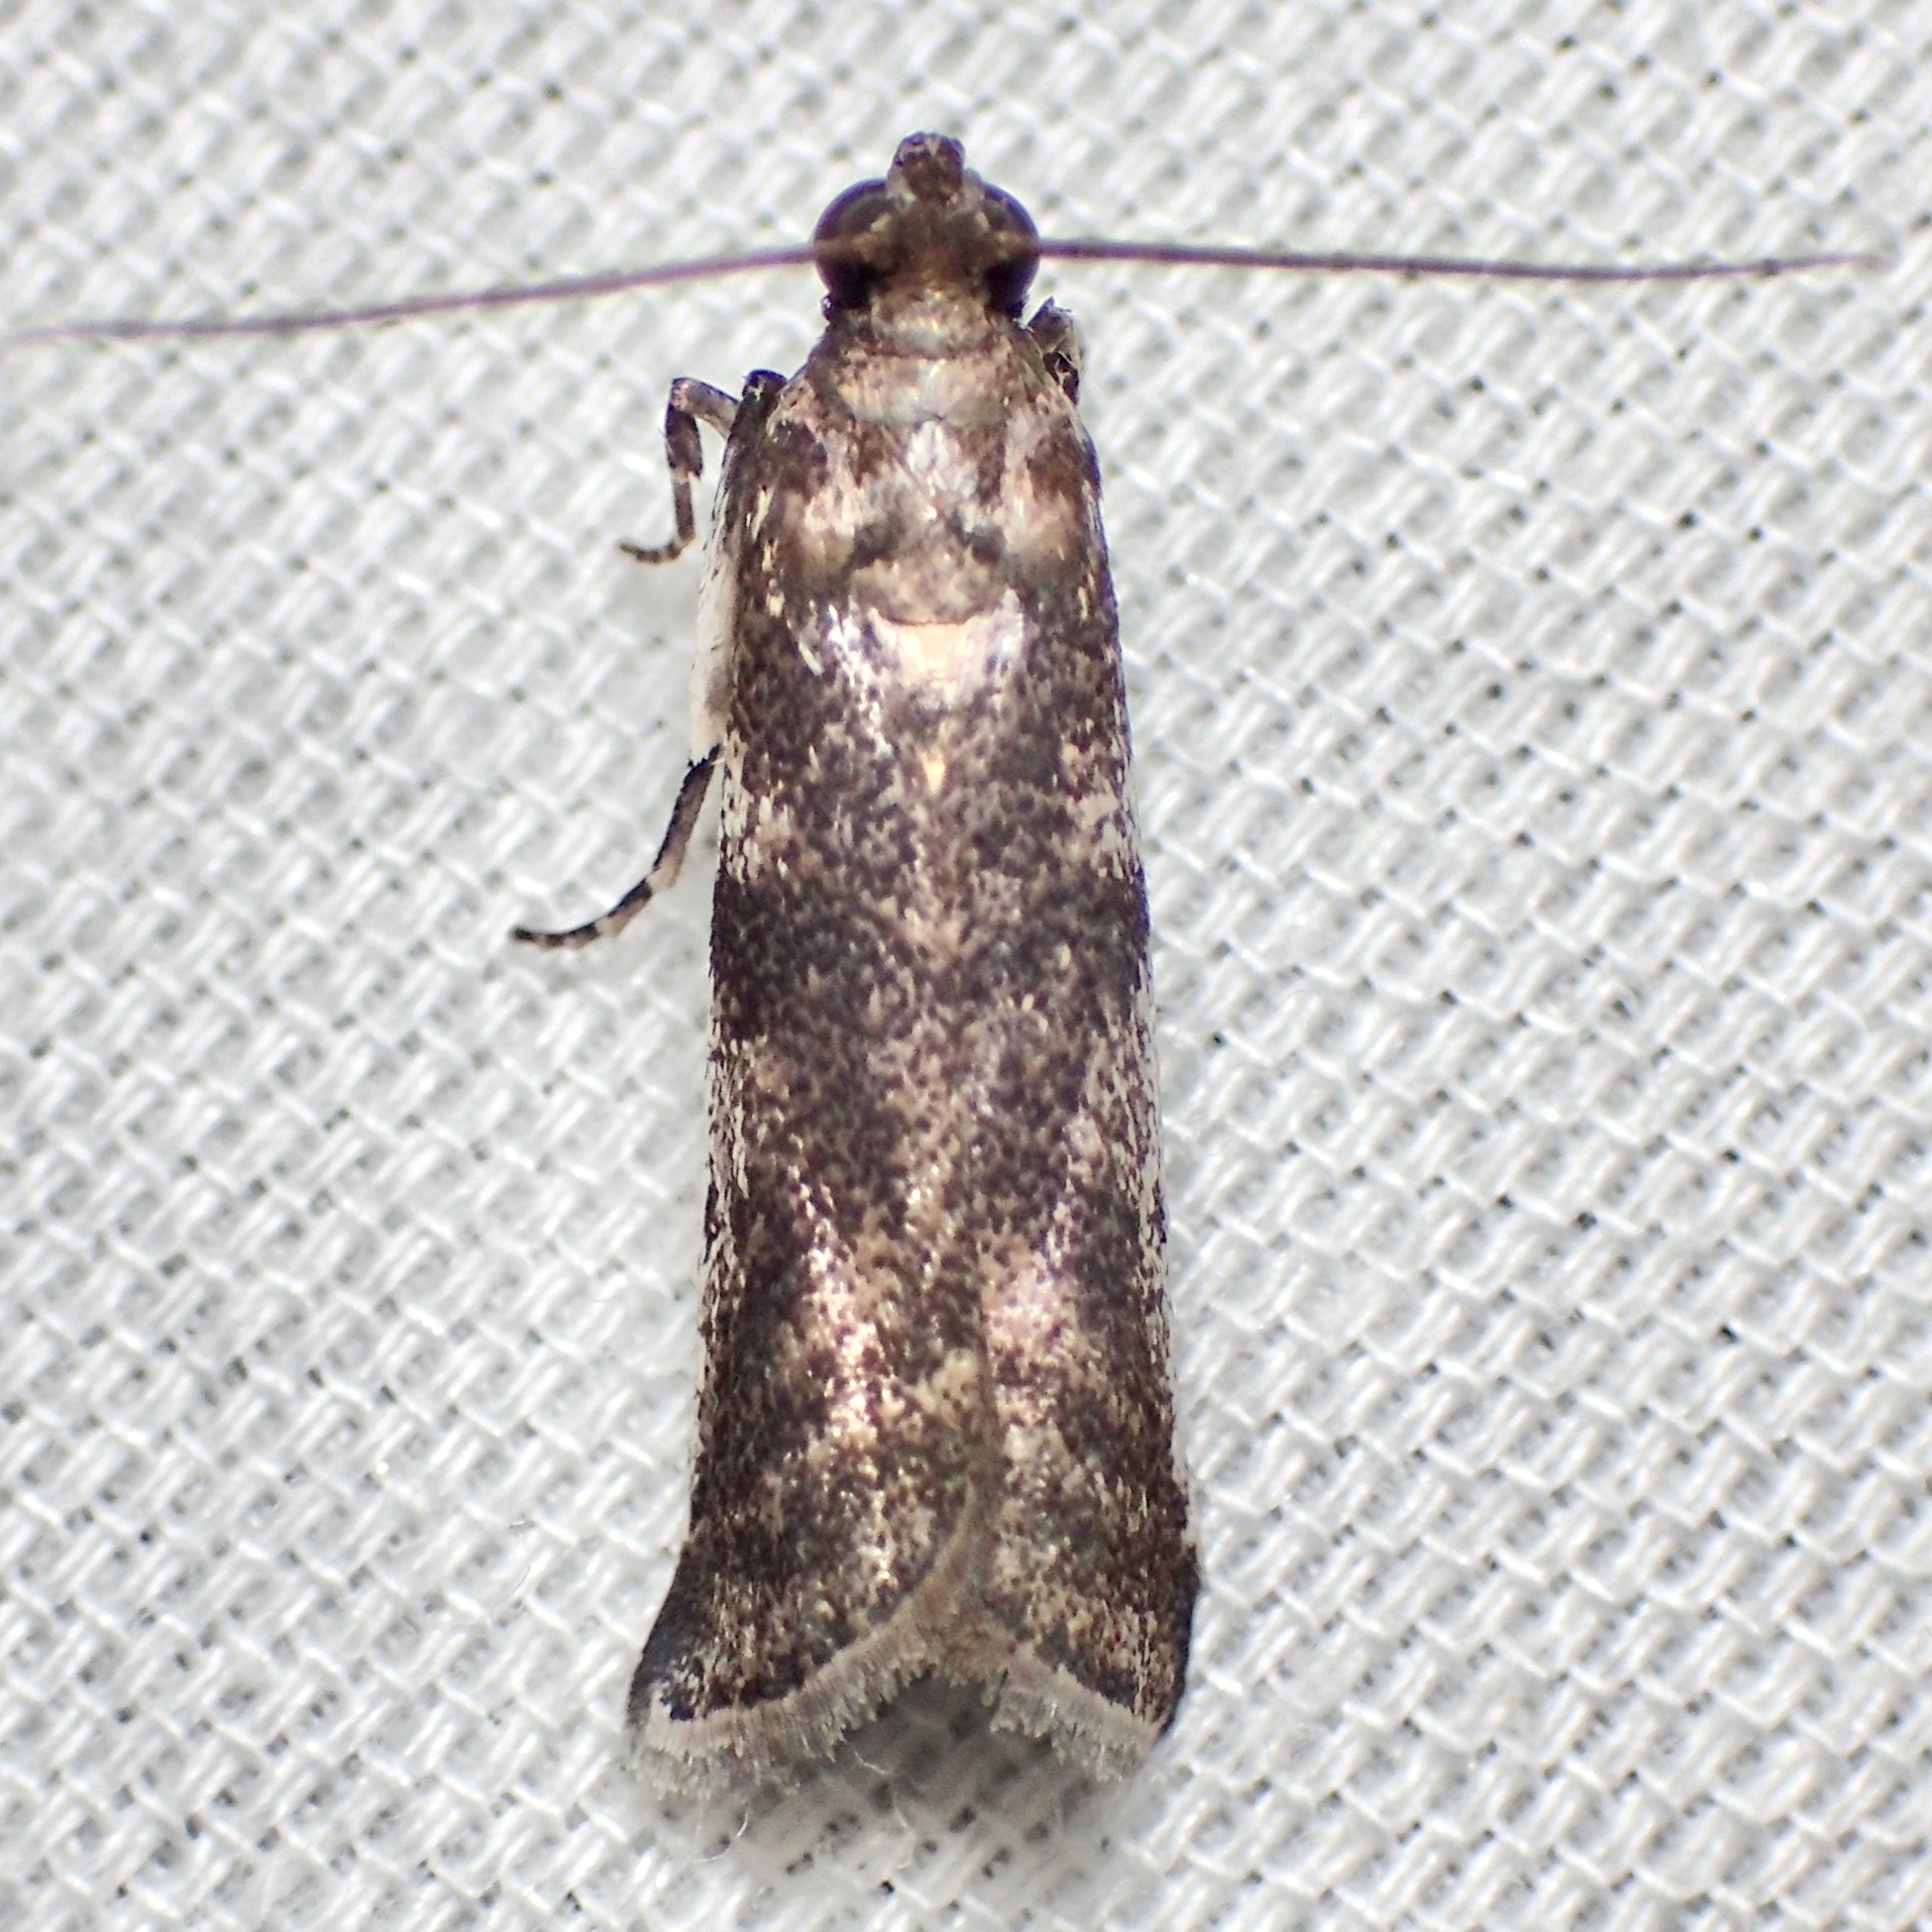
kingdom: Animalia
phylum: Arthropoda
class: Insecta
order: Lepidoptera
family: Pyralidae
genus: Rhodophaea
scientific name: Rhodophaea
